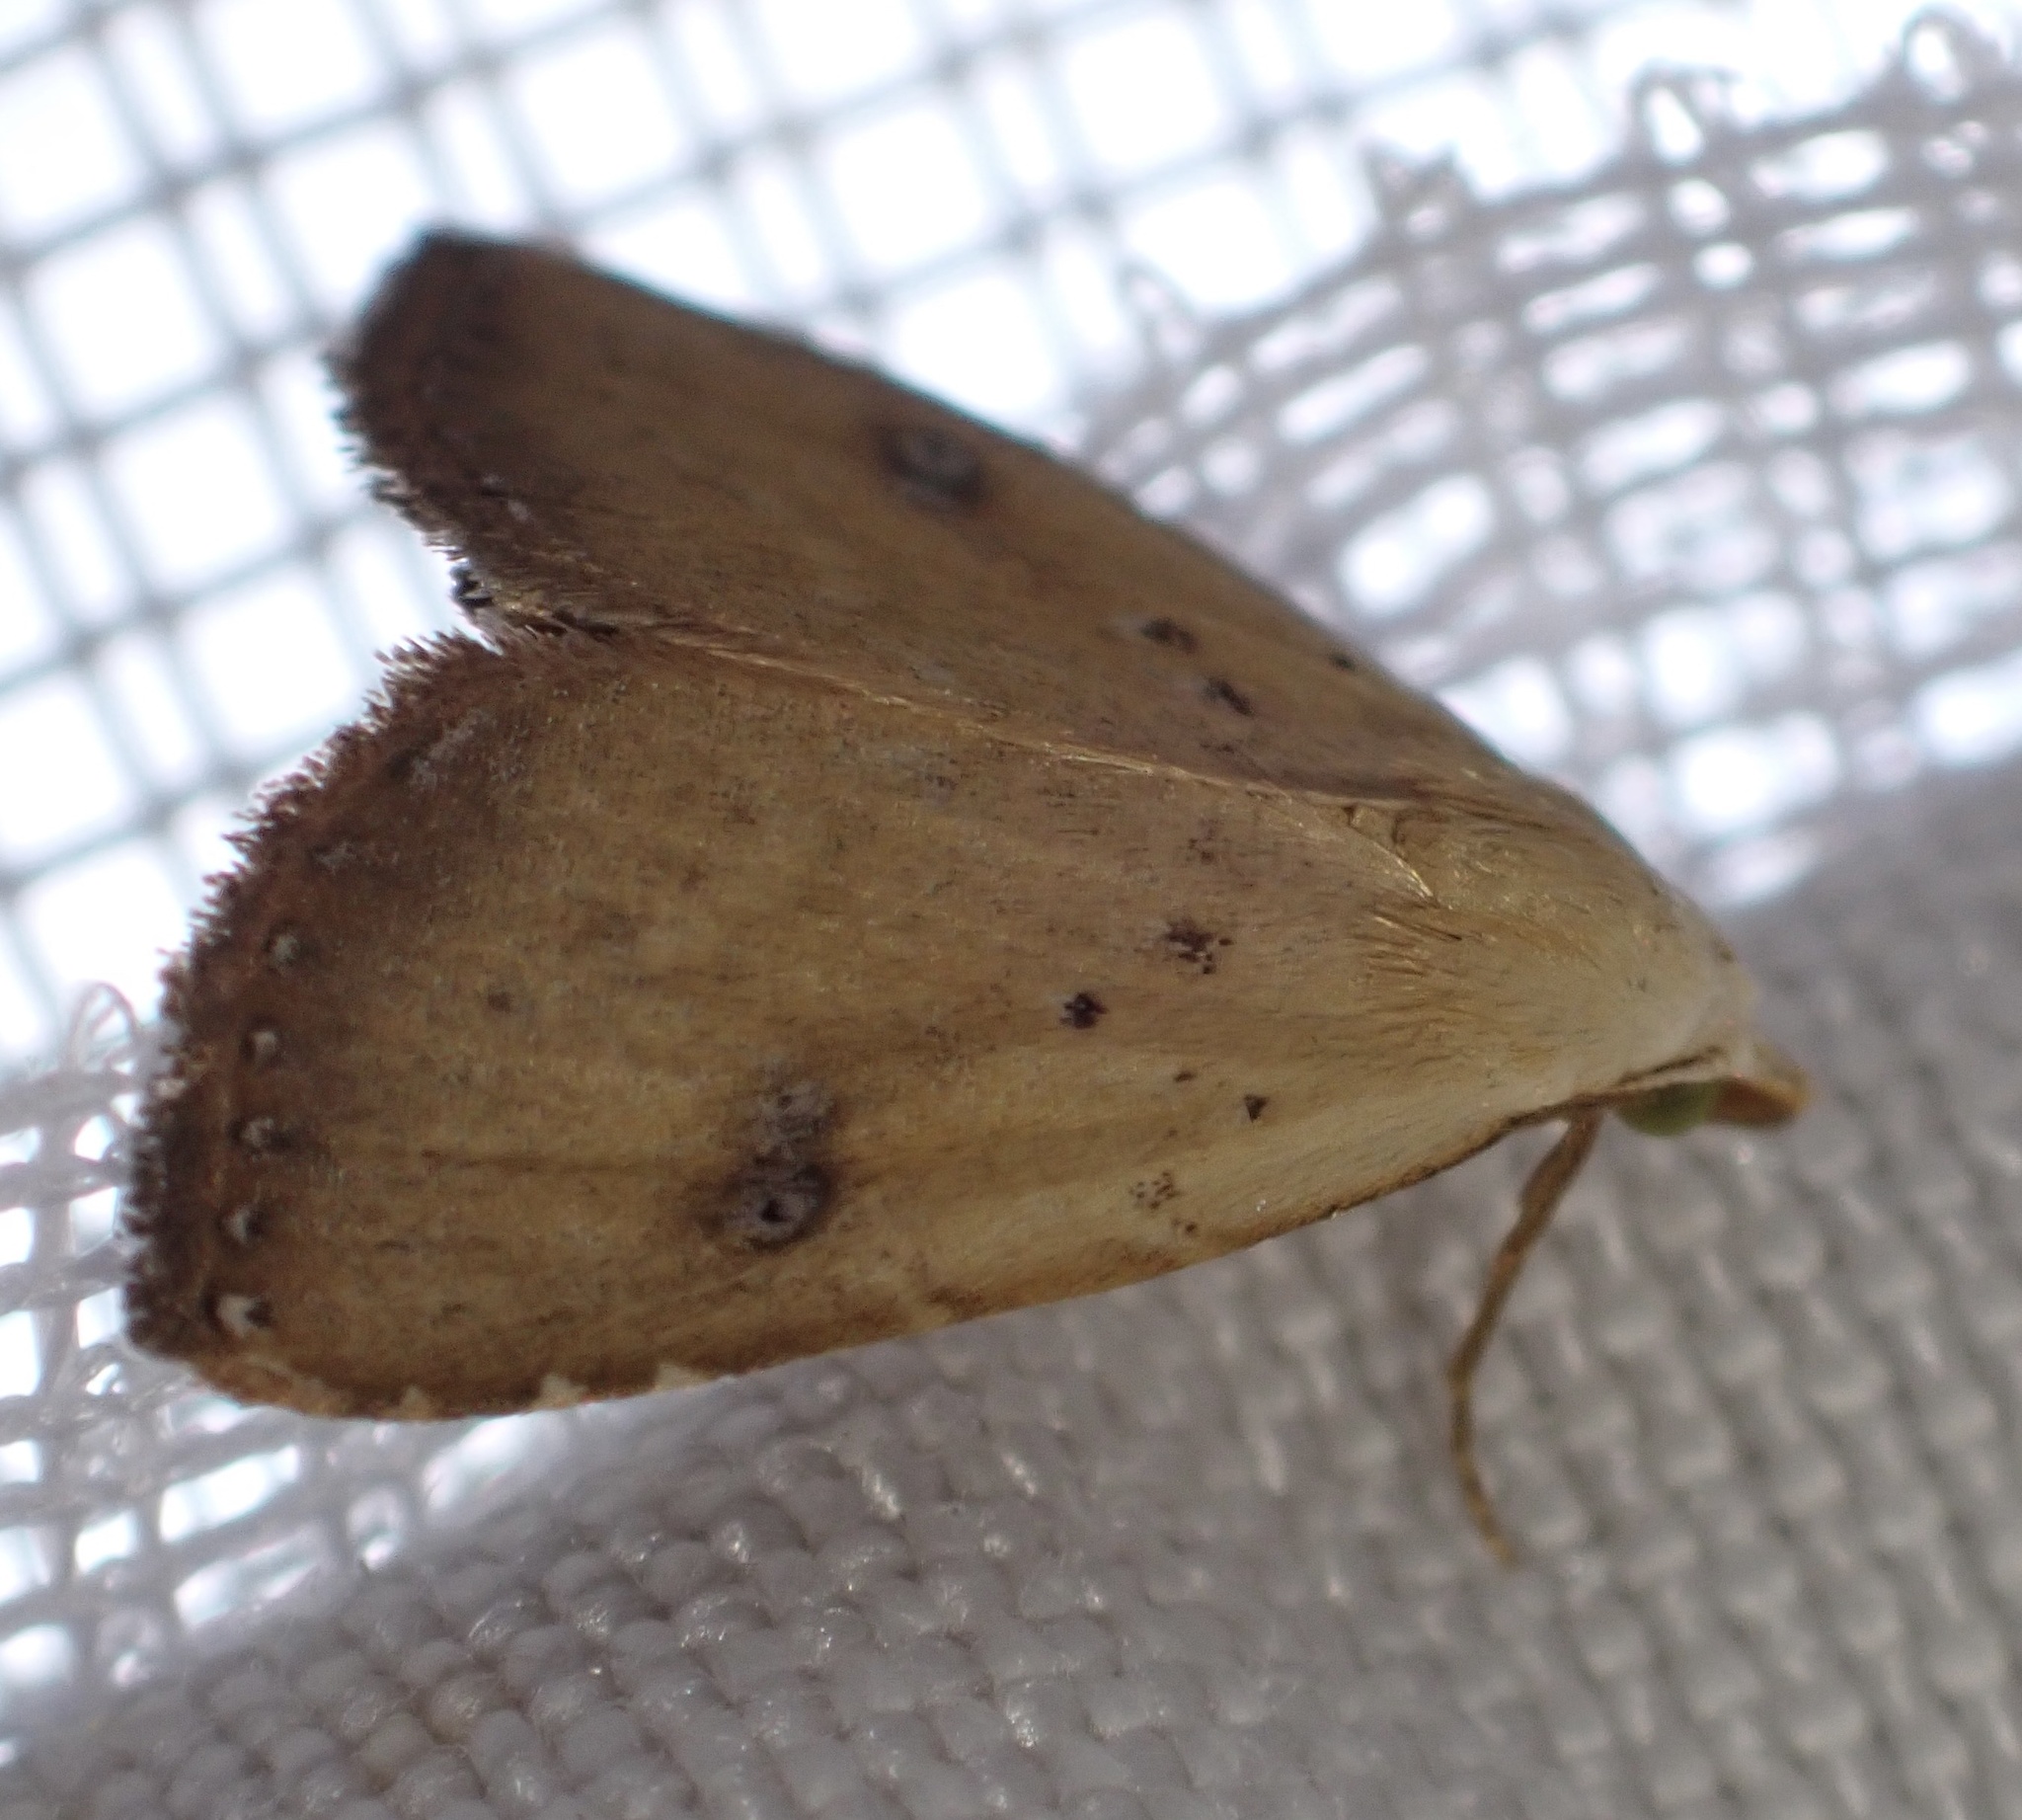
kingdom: Animalia
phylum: Arthropoda
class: Insecta
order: Lepidoptera
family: Erebidae
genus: Rivula
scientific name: Rivula sericealis
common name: Straw dot
